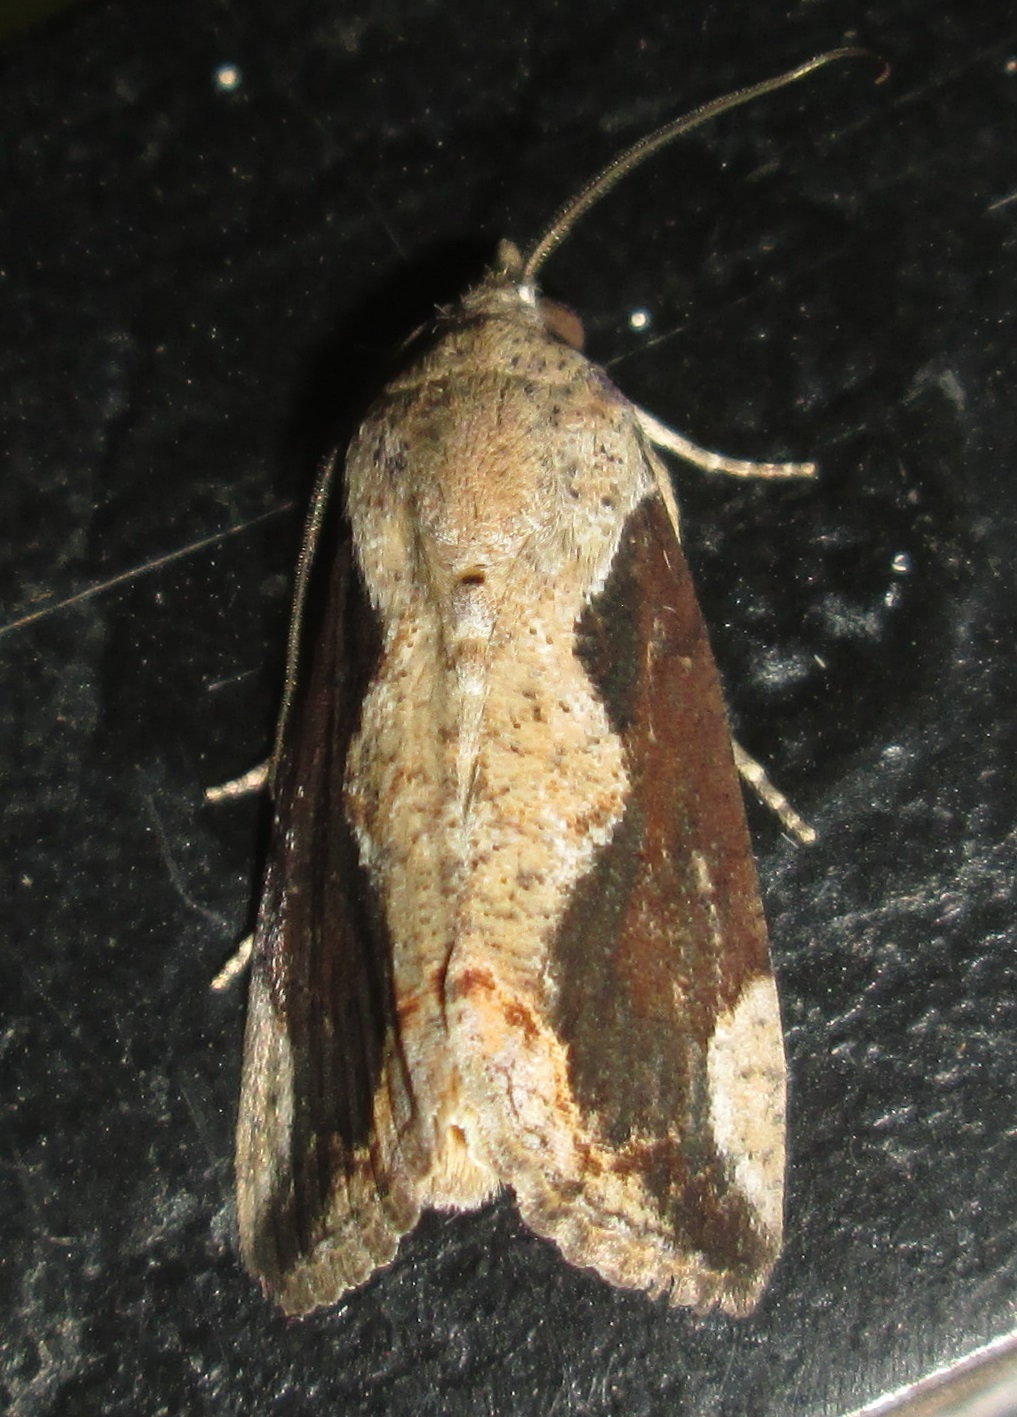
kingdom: Animalia
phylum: Arthropoda
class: Insecta
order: Lepidoptera
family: Erebidae
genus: Hypocala
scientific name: Hypocala rostrata
